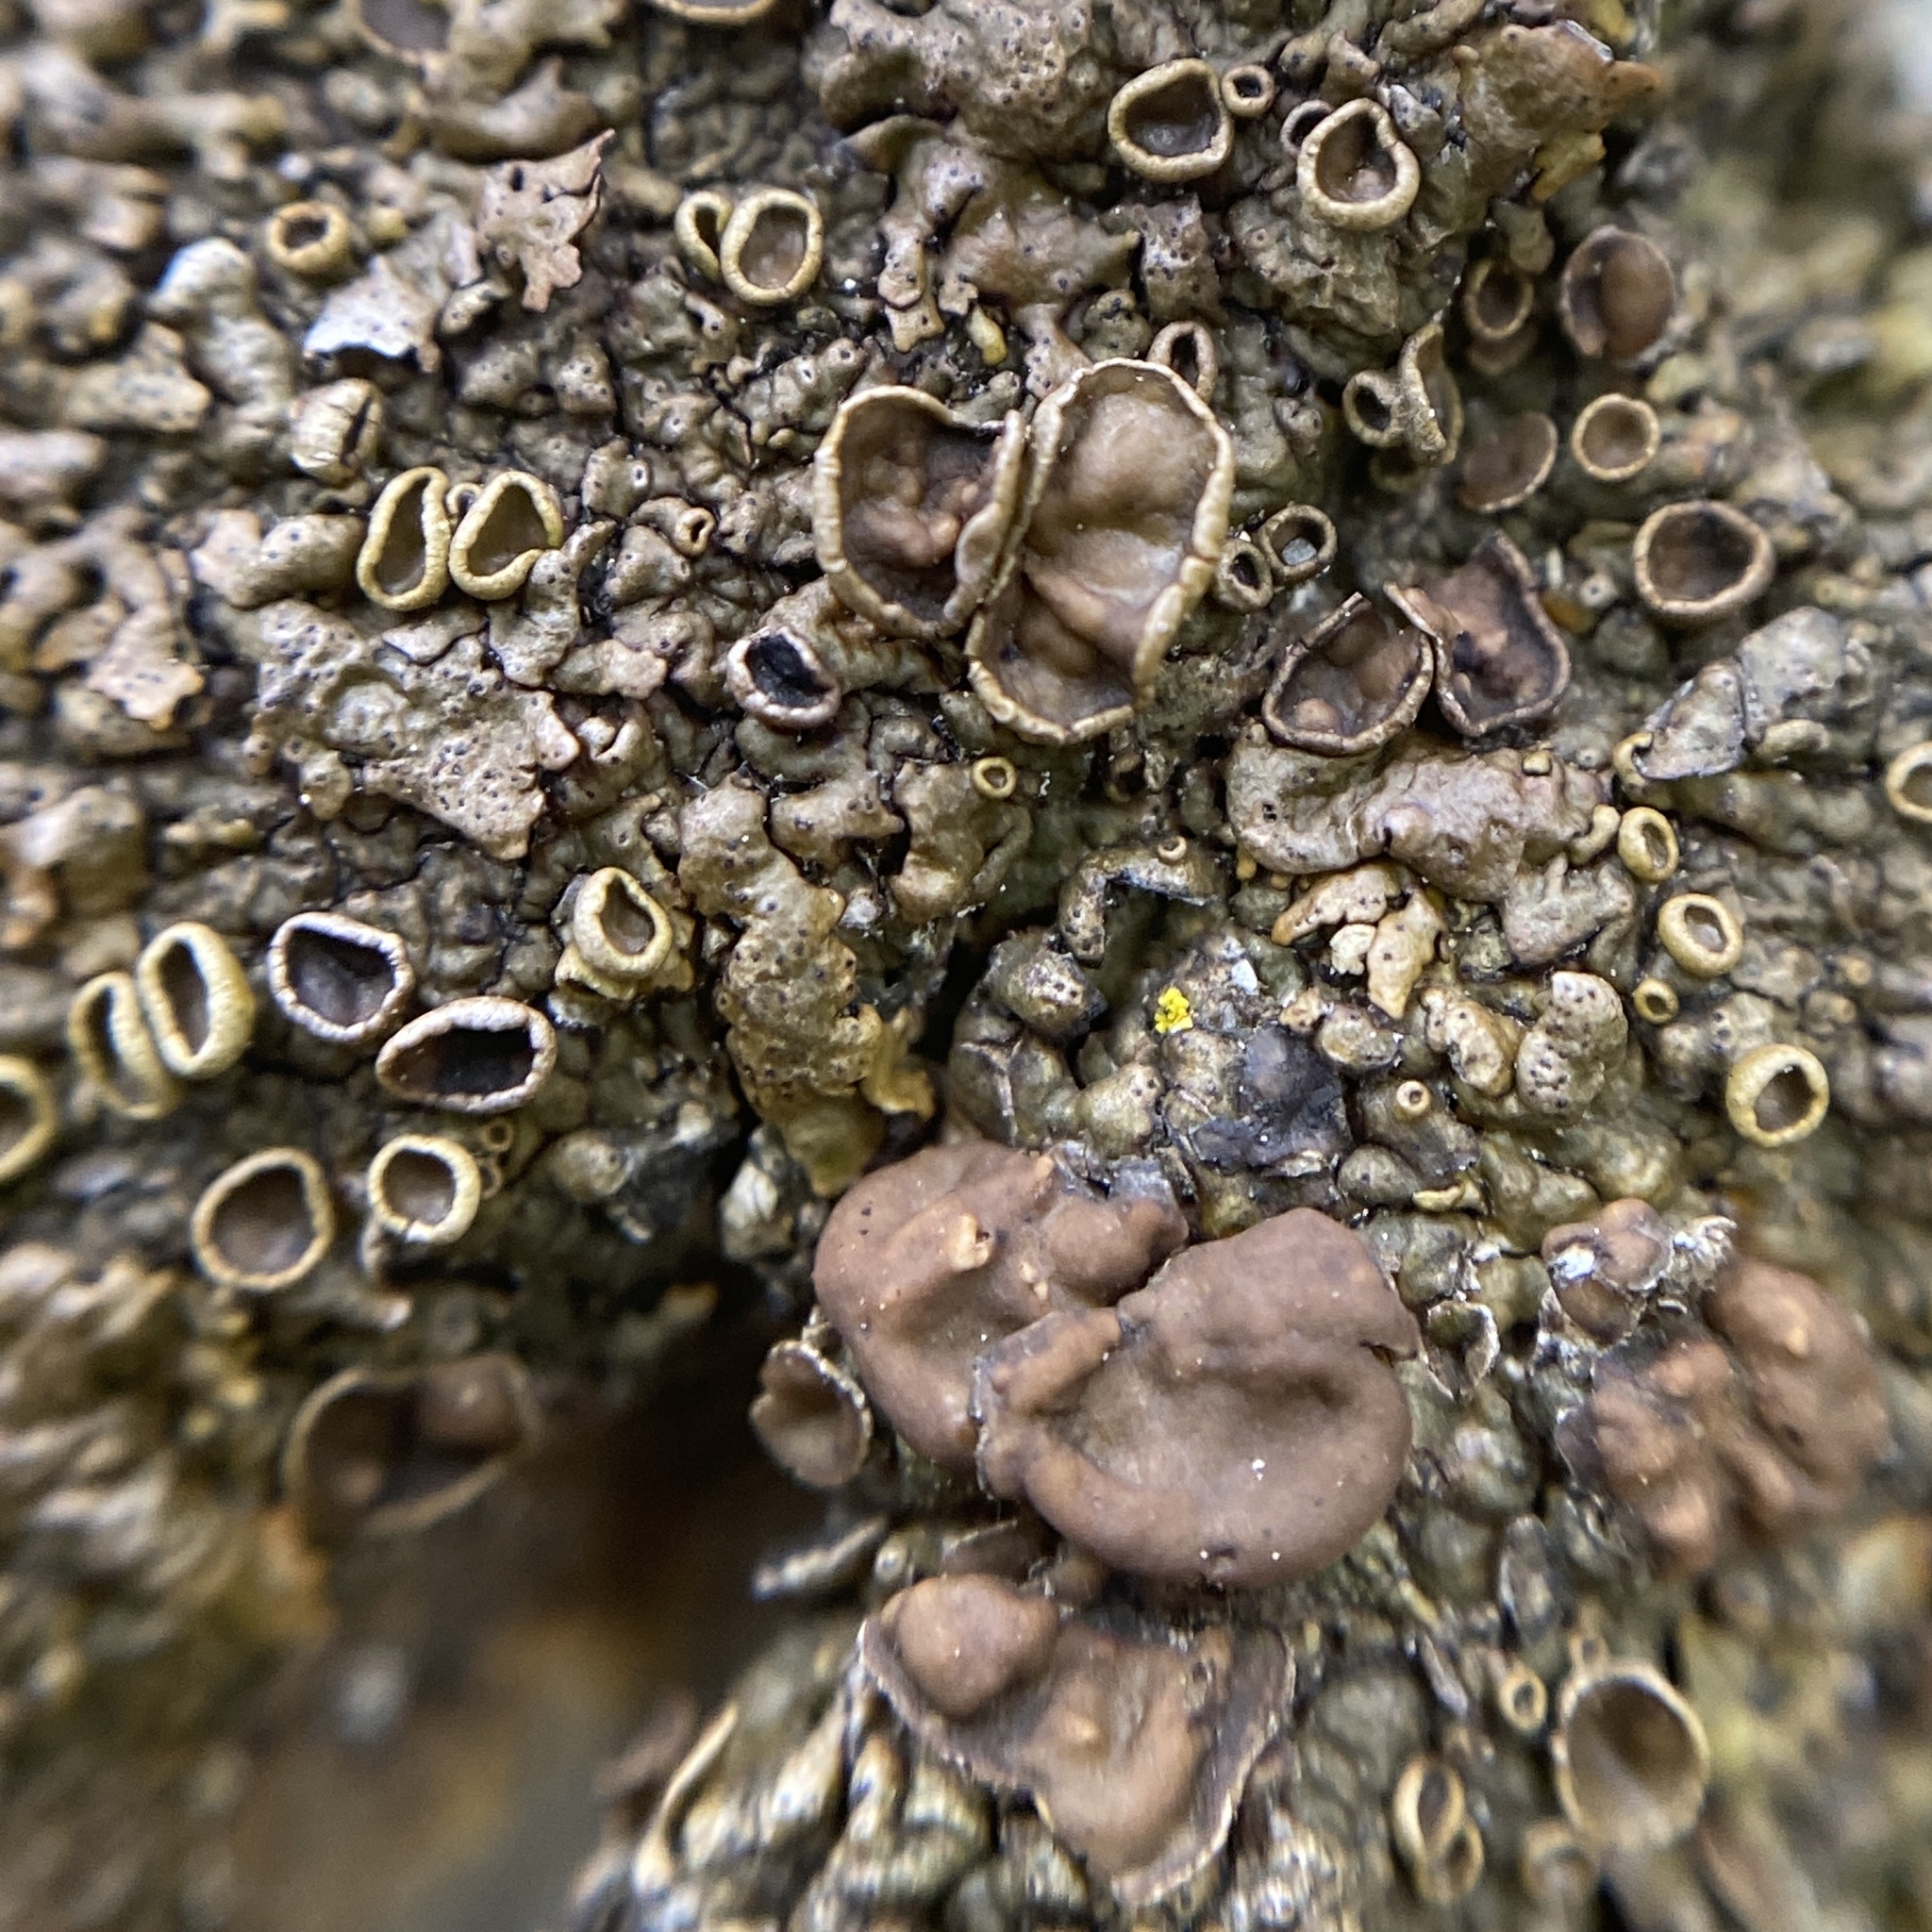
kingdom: Fungi
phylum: Ascomycota
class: Lecanoromycetes
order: Lecanorales
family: Parmeliaceae
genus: Xanthoparmelia
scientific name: Xanthoparmelia pulla
